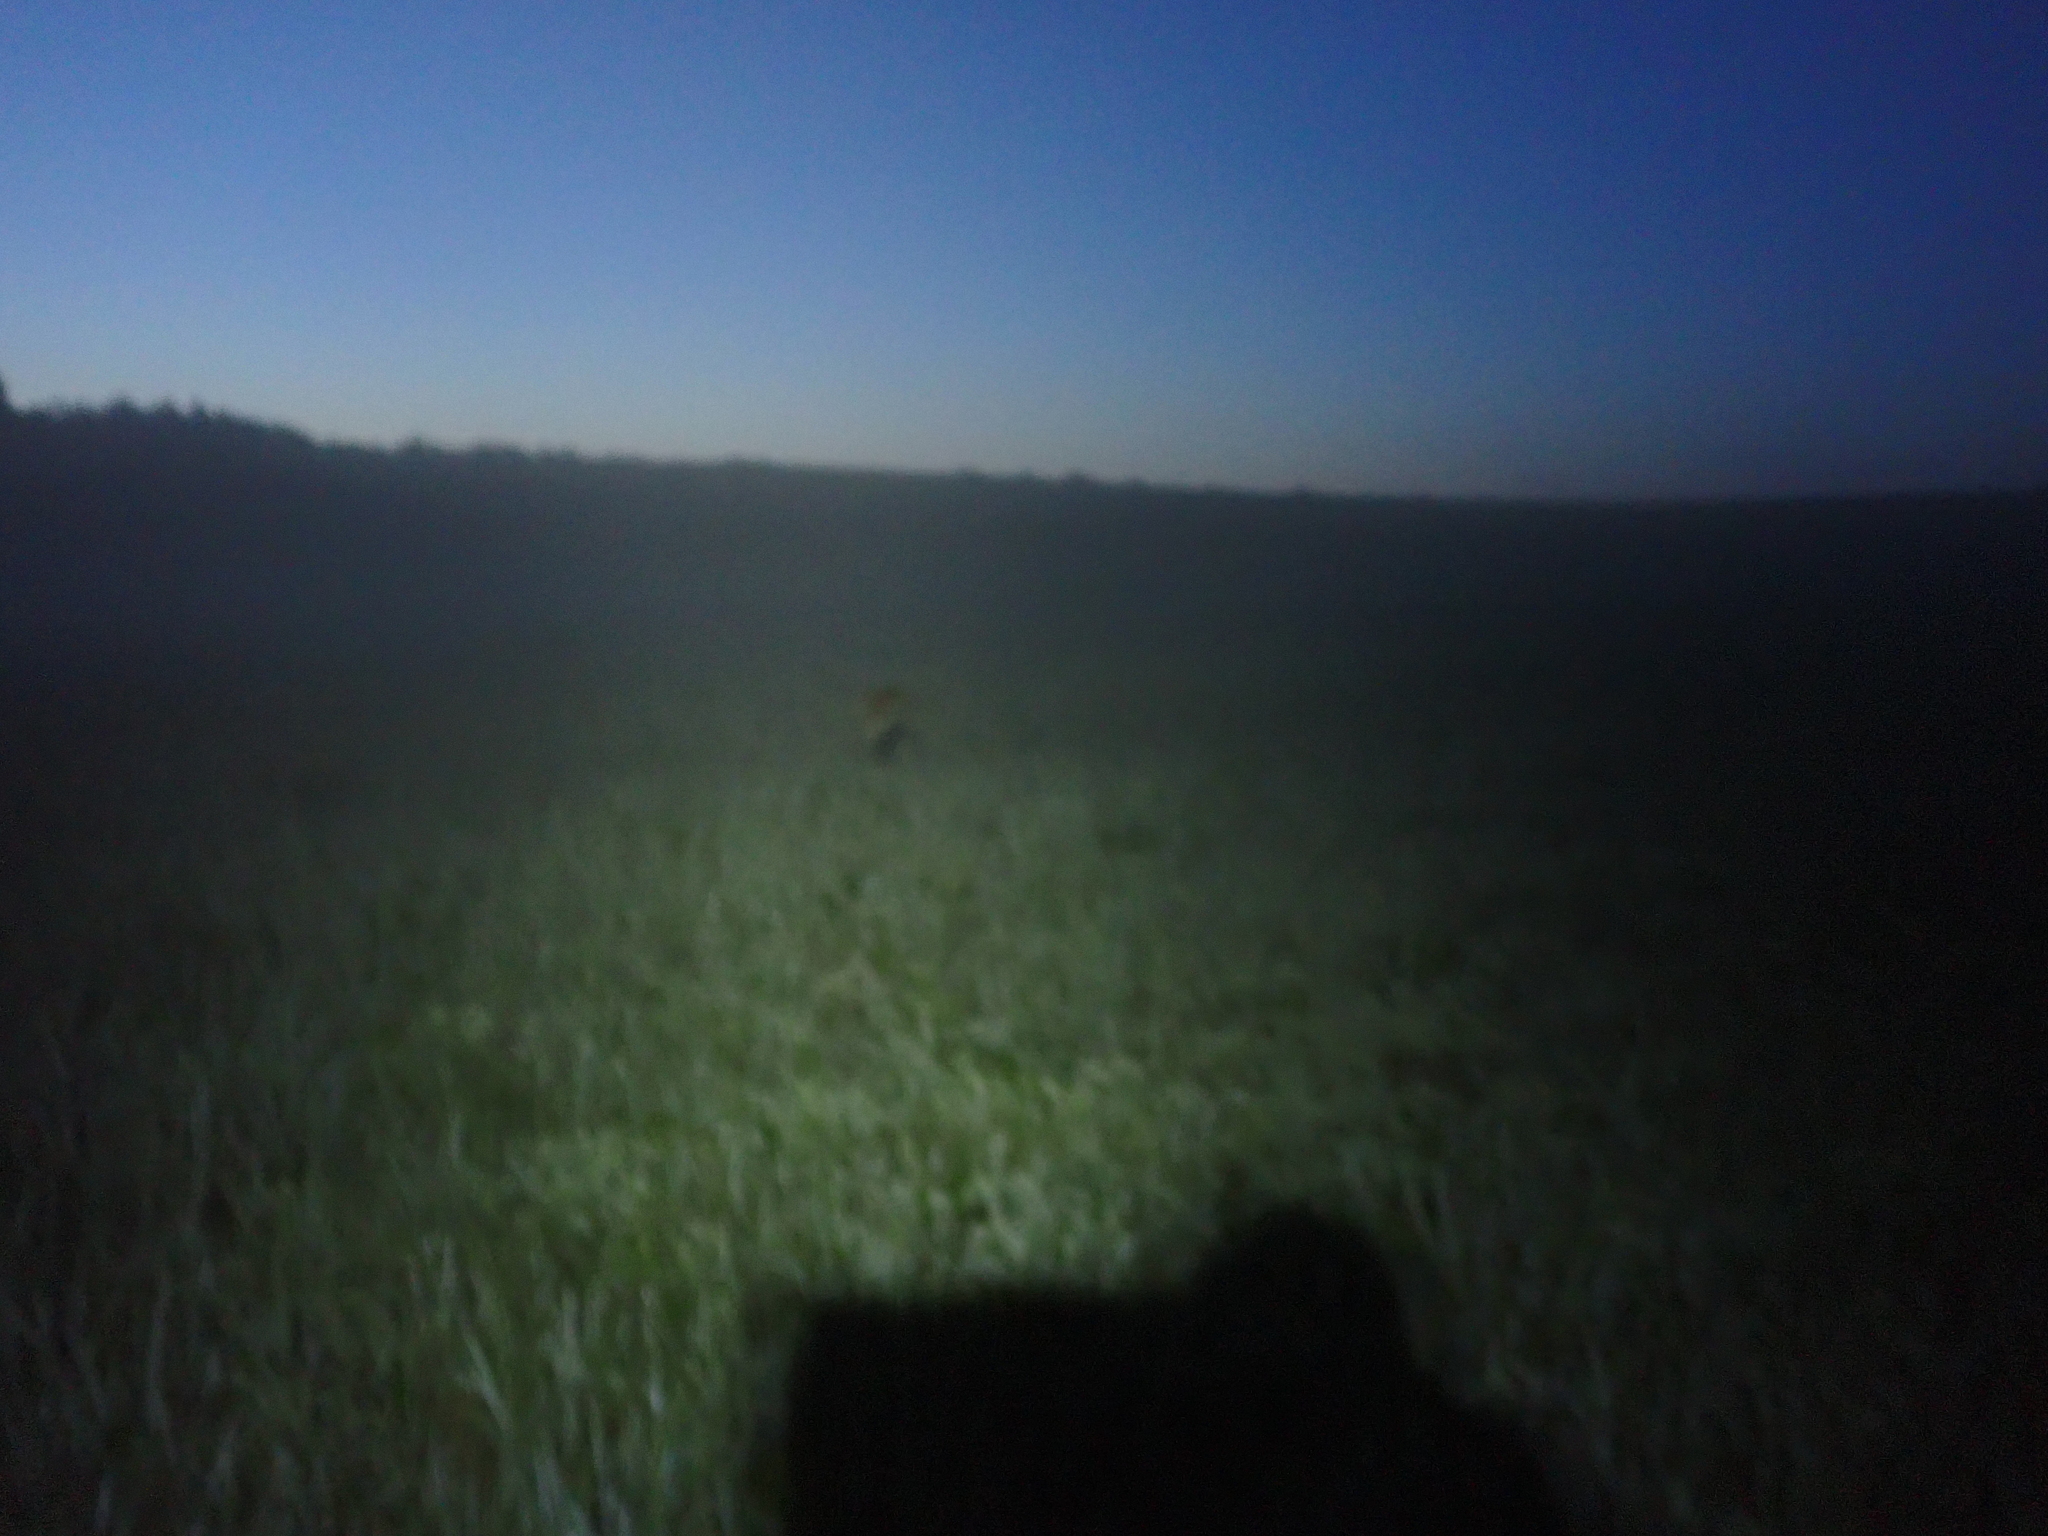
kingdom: Animalia
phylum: Chordata
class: Aves
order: Gruiformes
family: Rallidae
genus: Crex
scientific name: Crex crex
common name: Corn crake
